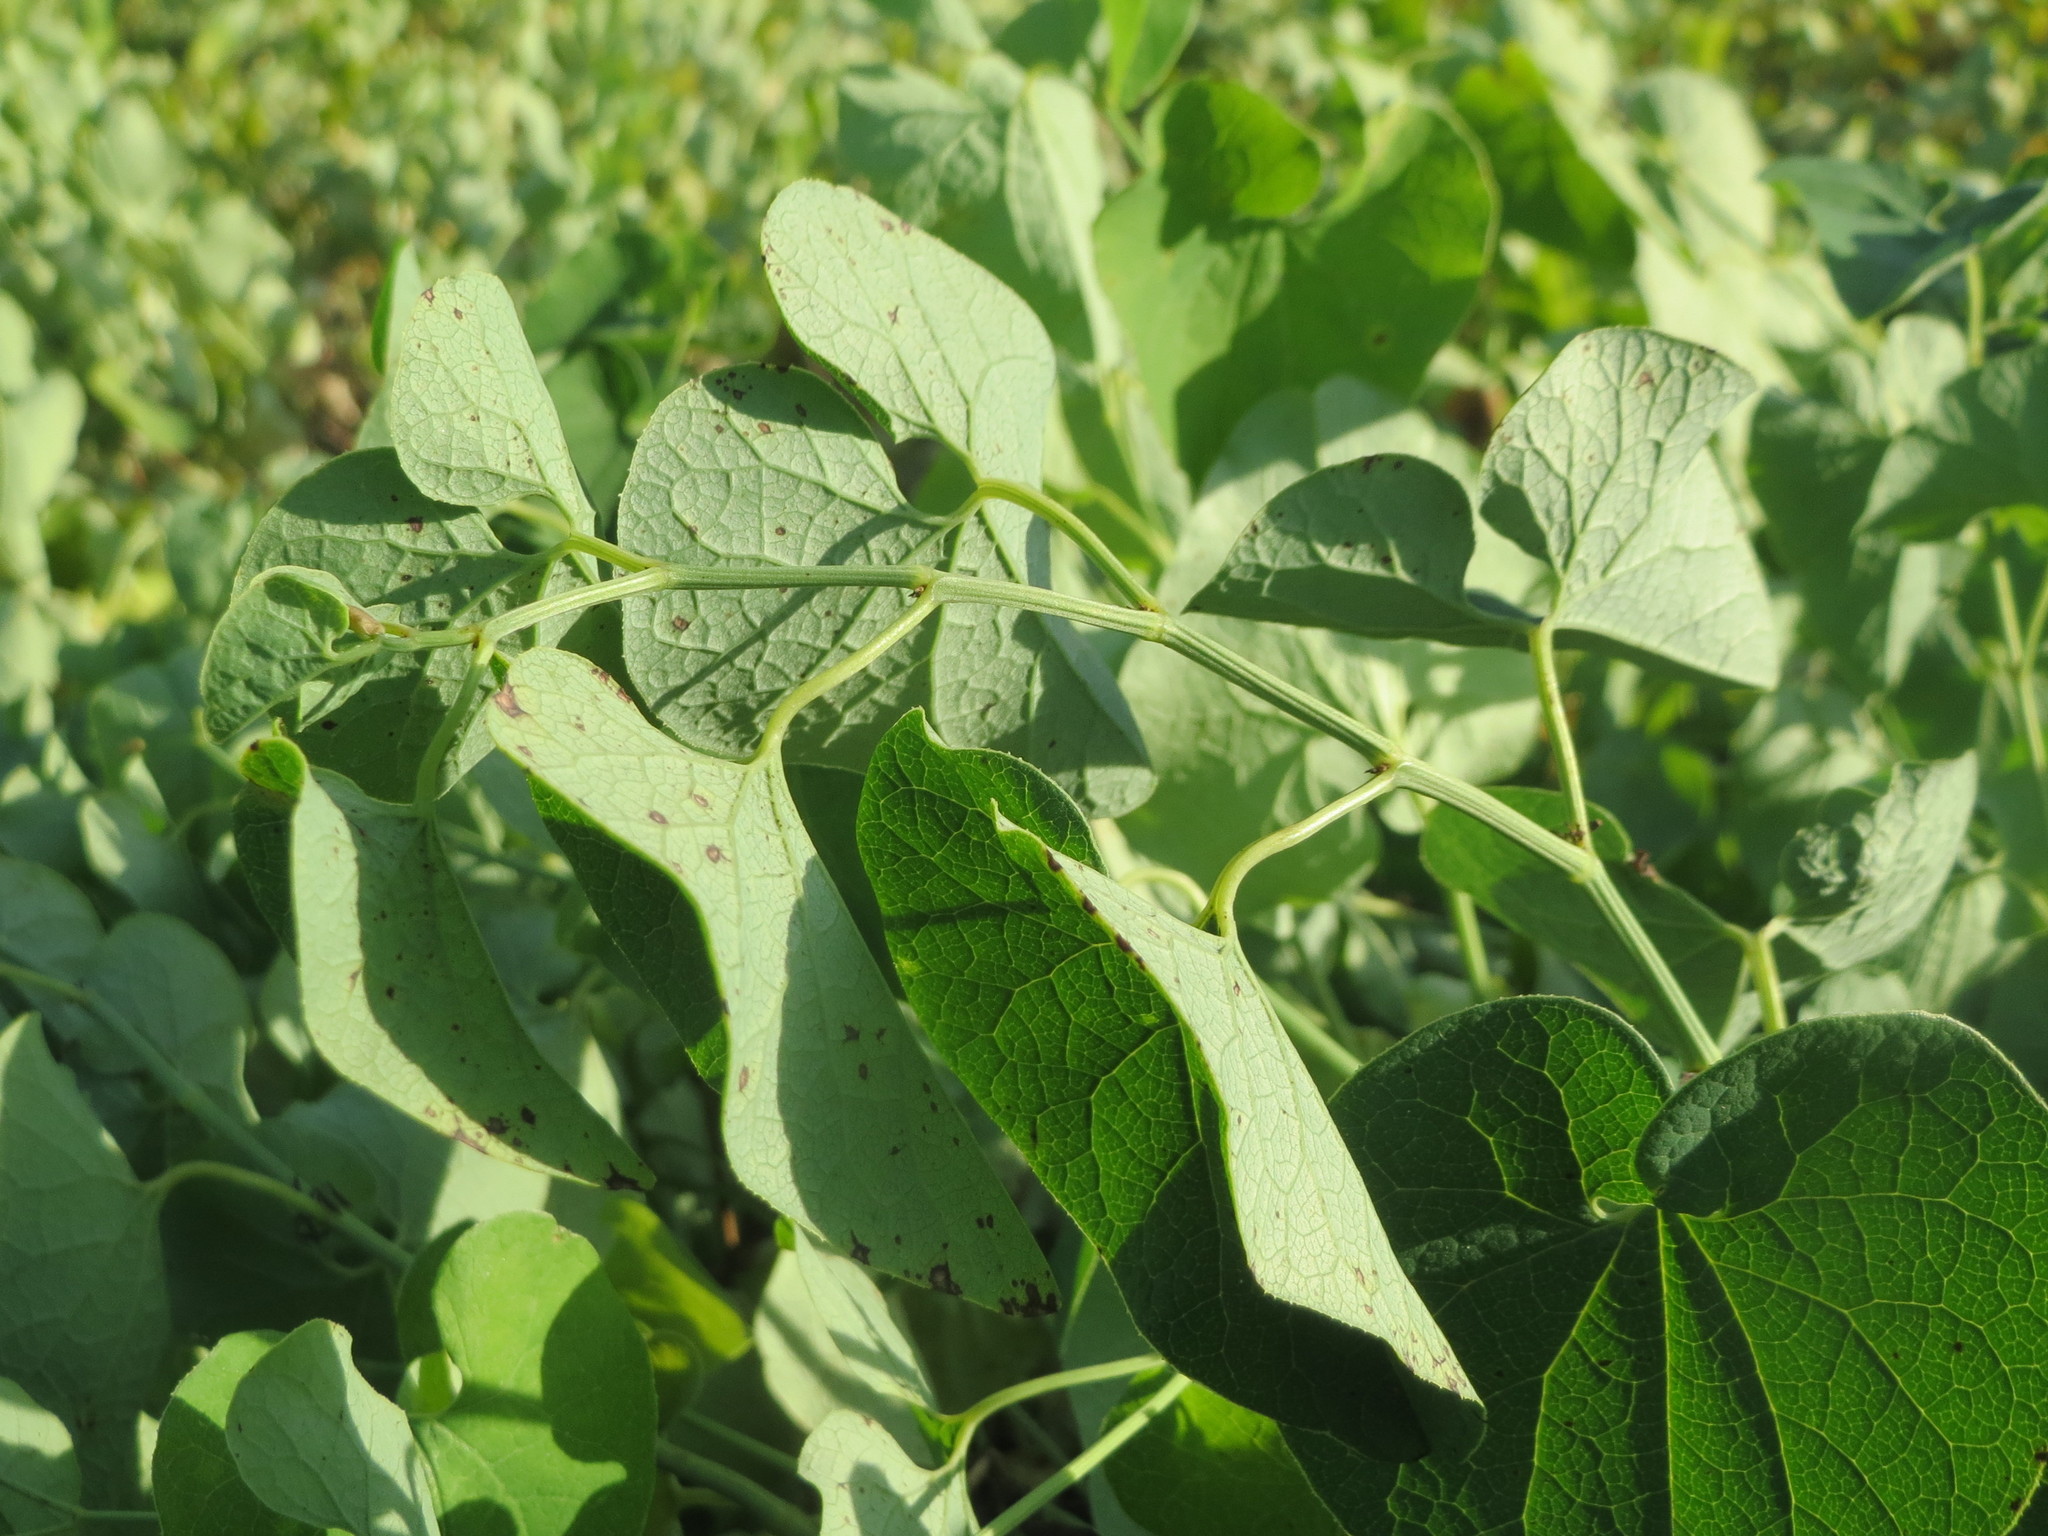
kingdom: Plantae
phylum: Tracheophyta
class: Magnoliopsida
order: Piperales
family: Aristolochiaceae
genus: Aristolochia
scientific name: Aristolochia clematitis
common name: Birthwort
